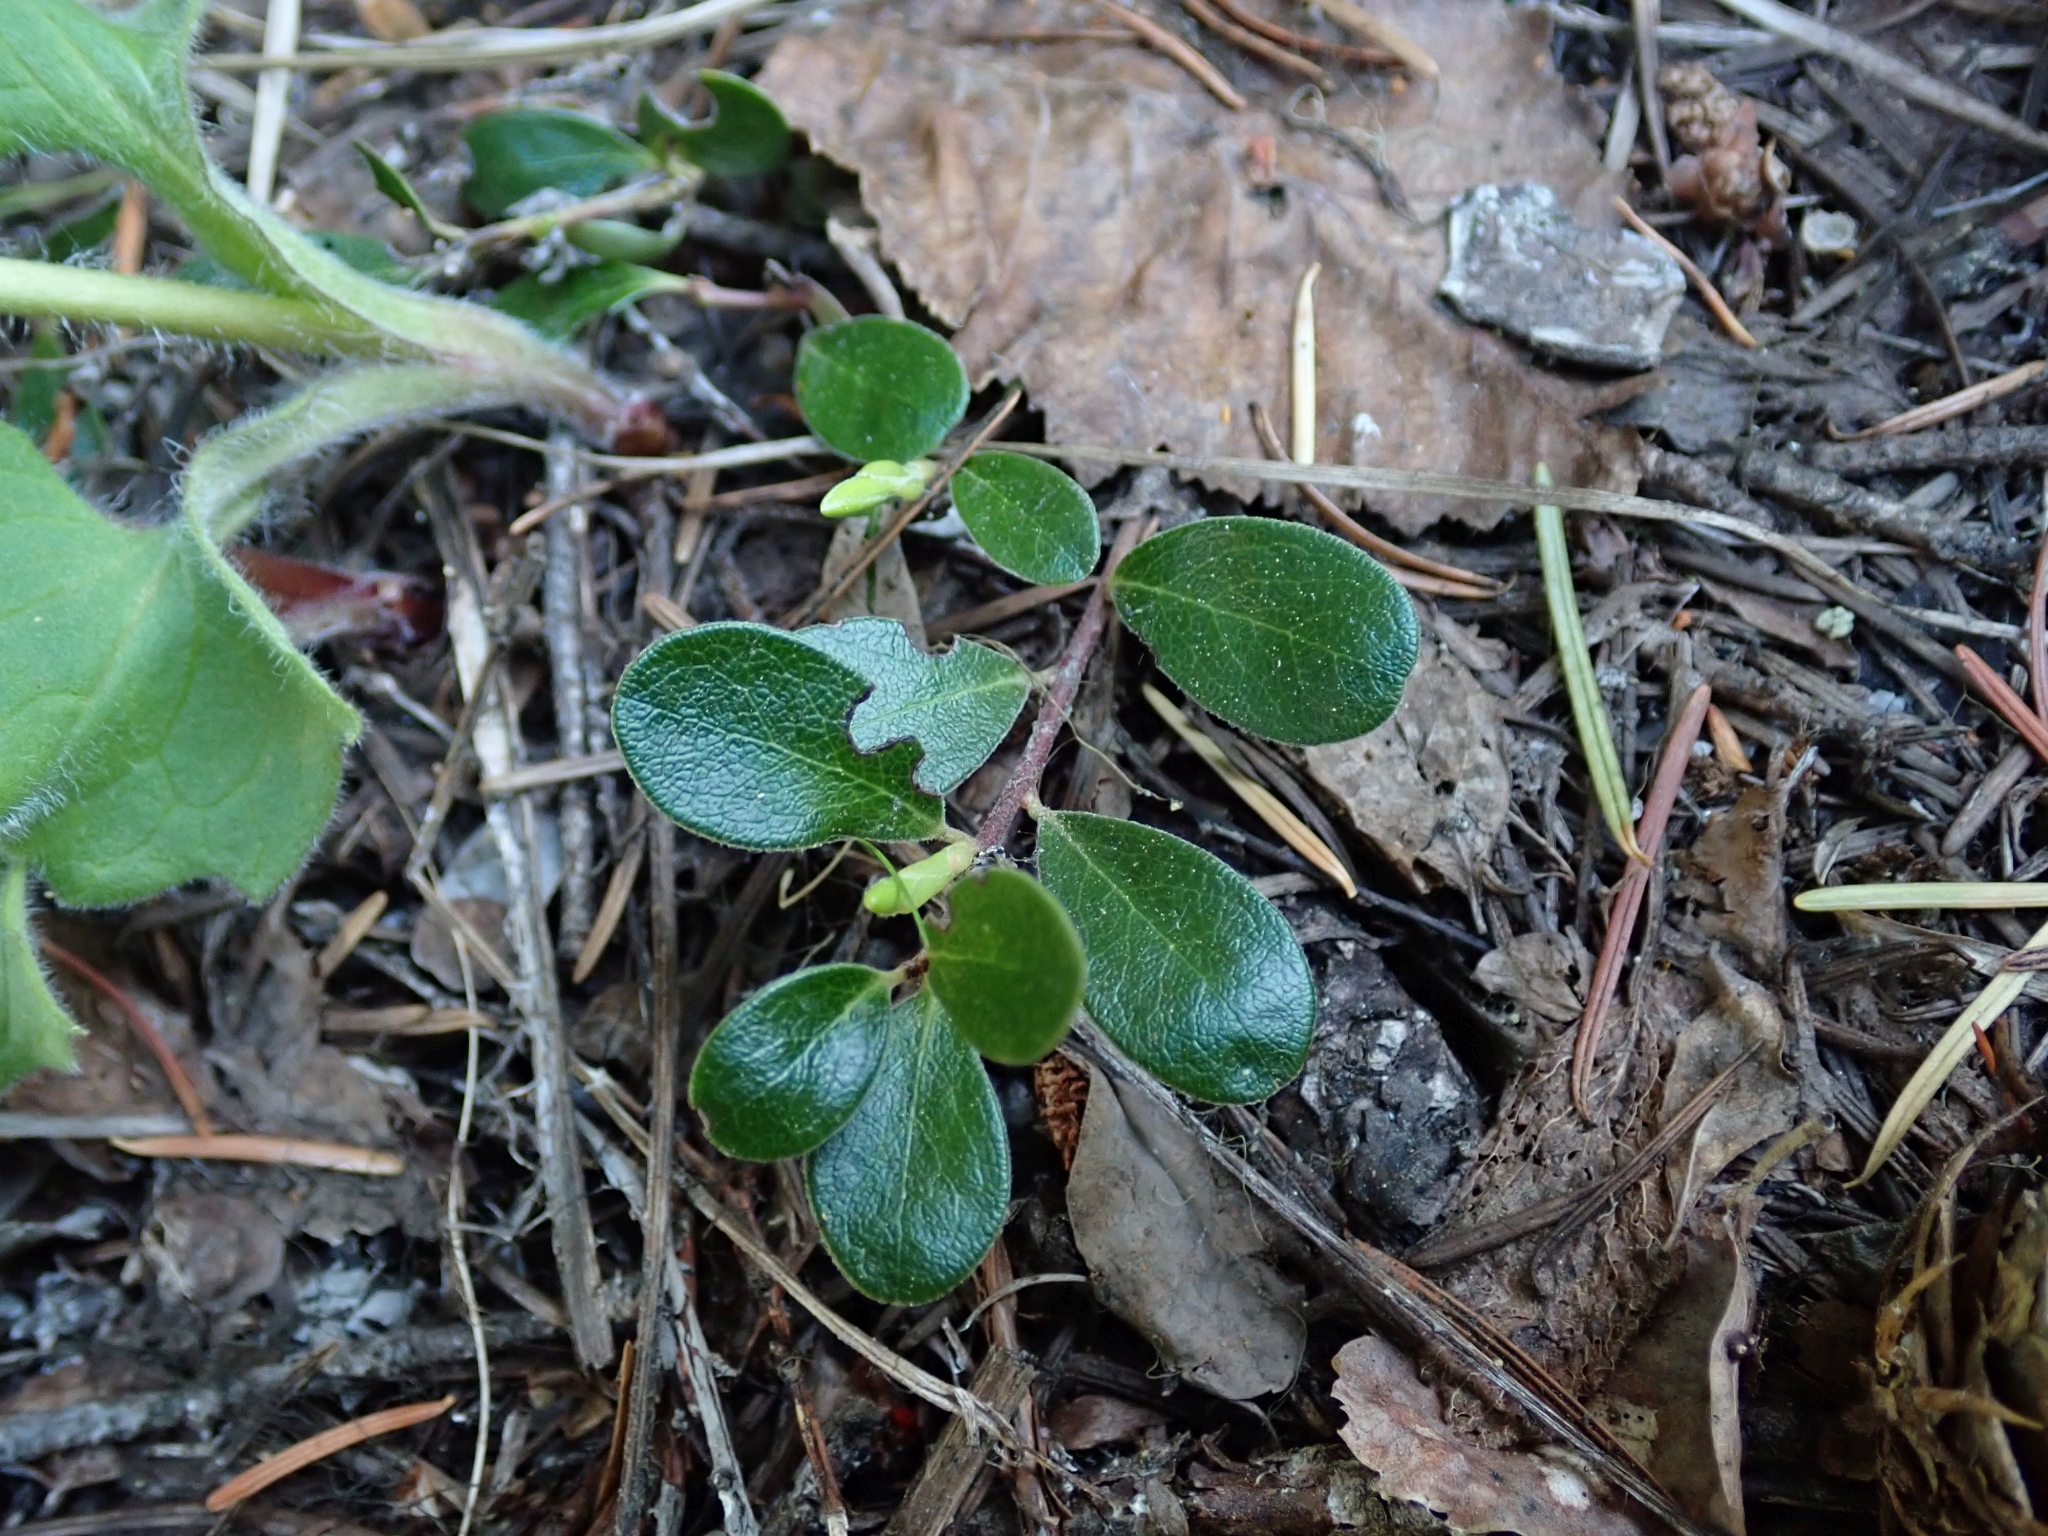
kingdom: Plantae
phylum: Tracheophyta
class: Magnoliopsida
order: Ericales
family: Ericaceae
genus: Arctostaphylos
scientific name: Arctostaphylos uva-ursi
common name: Bearberry
